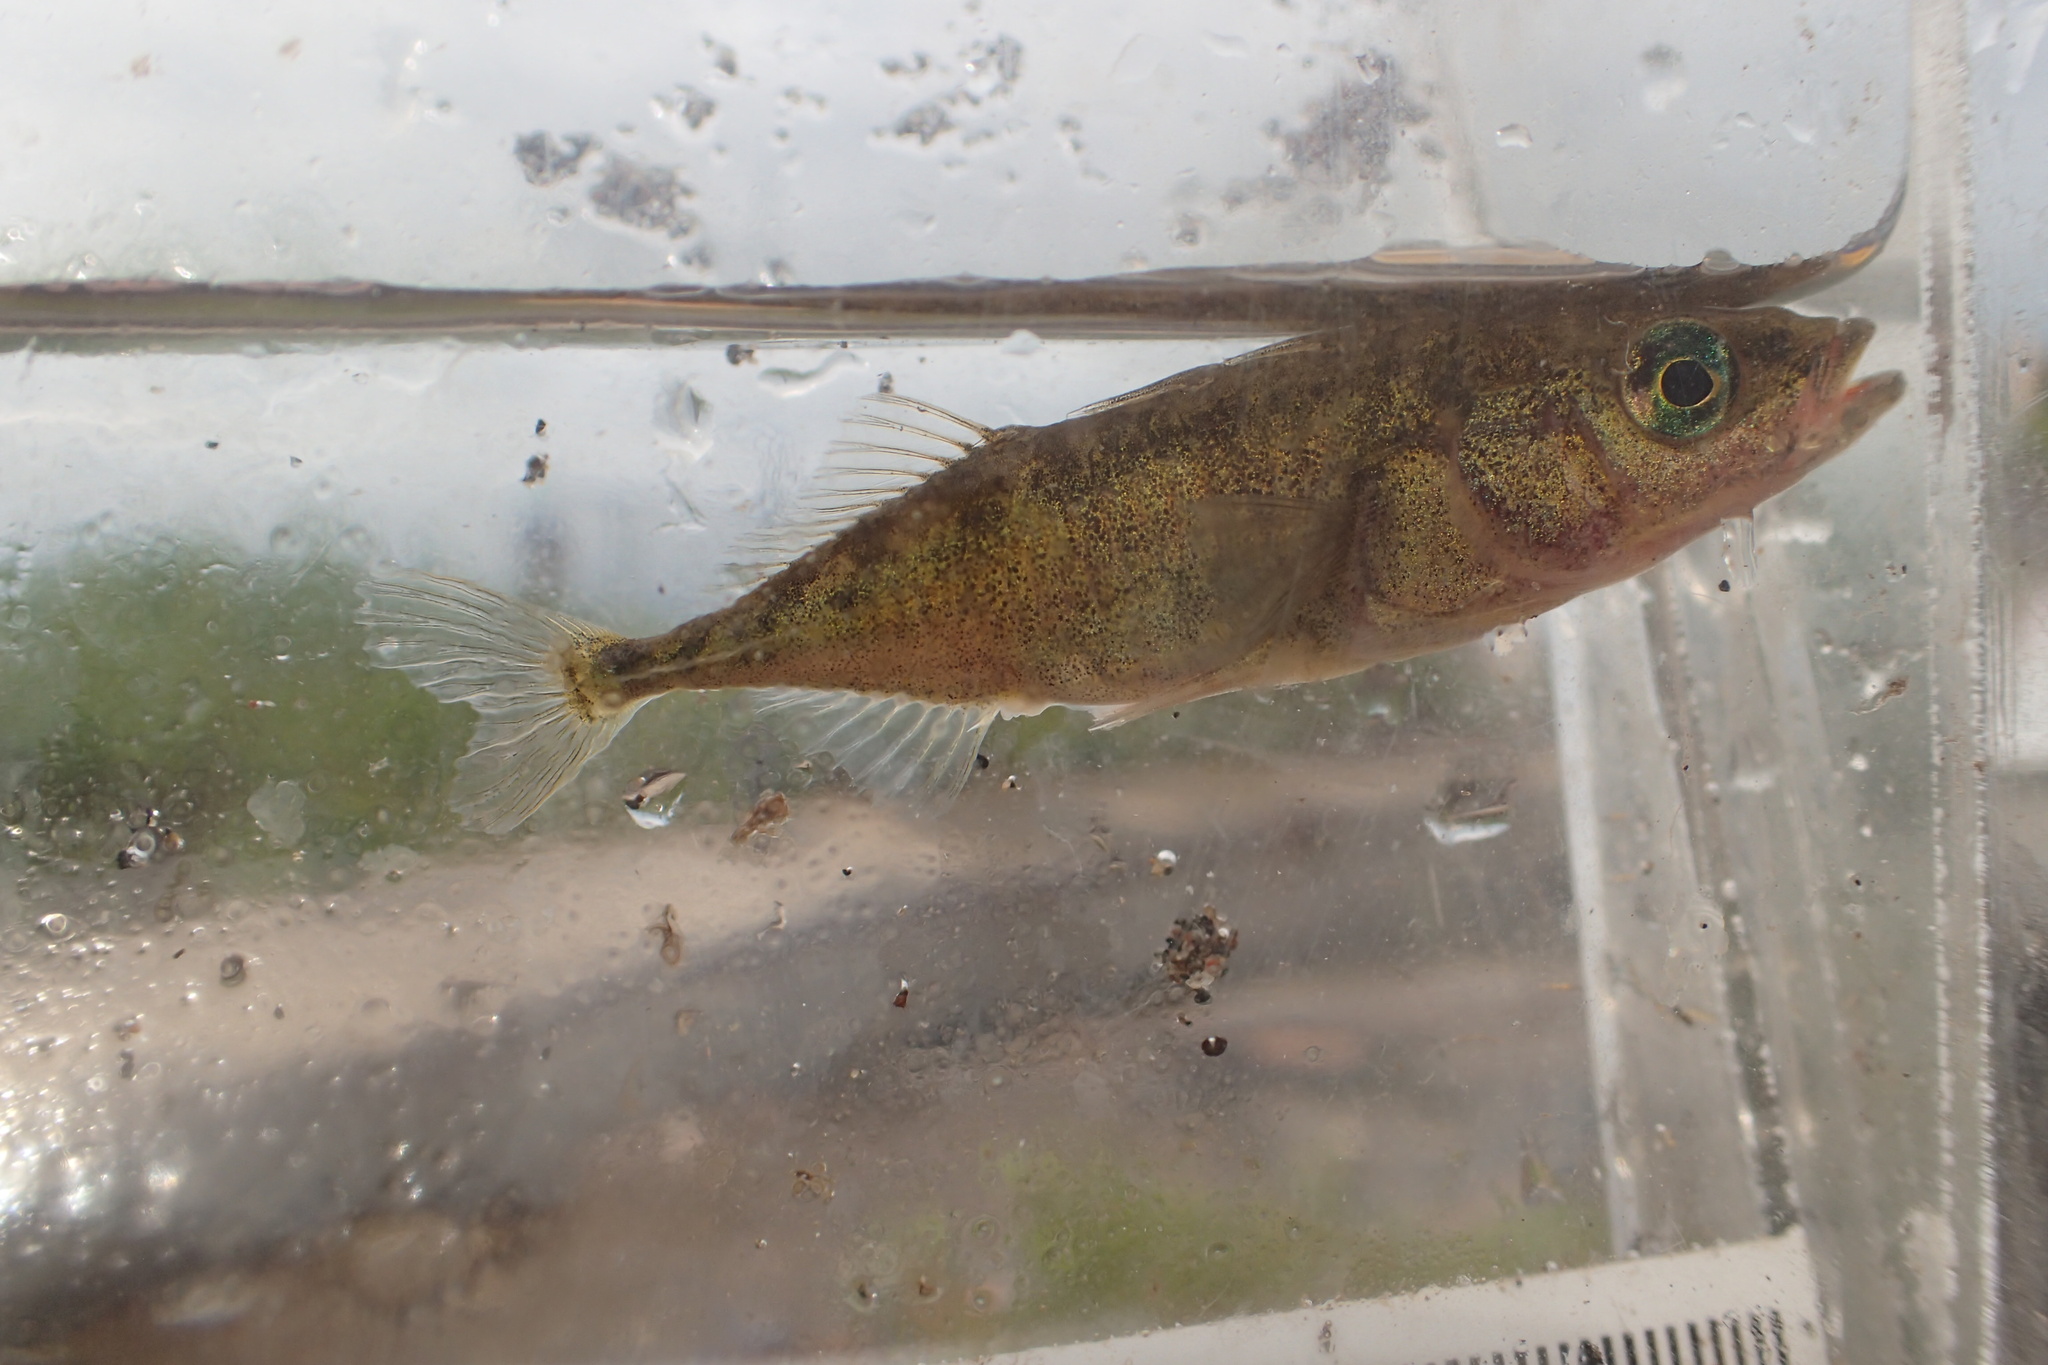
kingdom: Animalia
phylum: Chordata
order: Gasterosteiformes
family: Gasterosteidae
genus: Gasterosteus
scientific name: Gasterosteus aculeatus
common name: Three-spined stickleback
